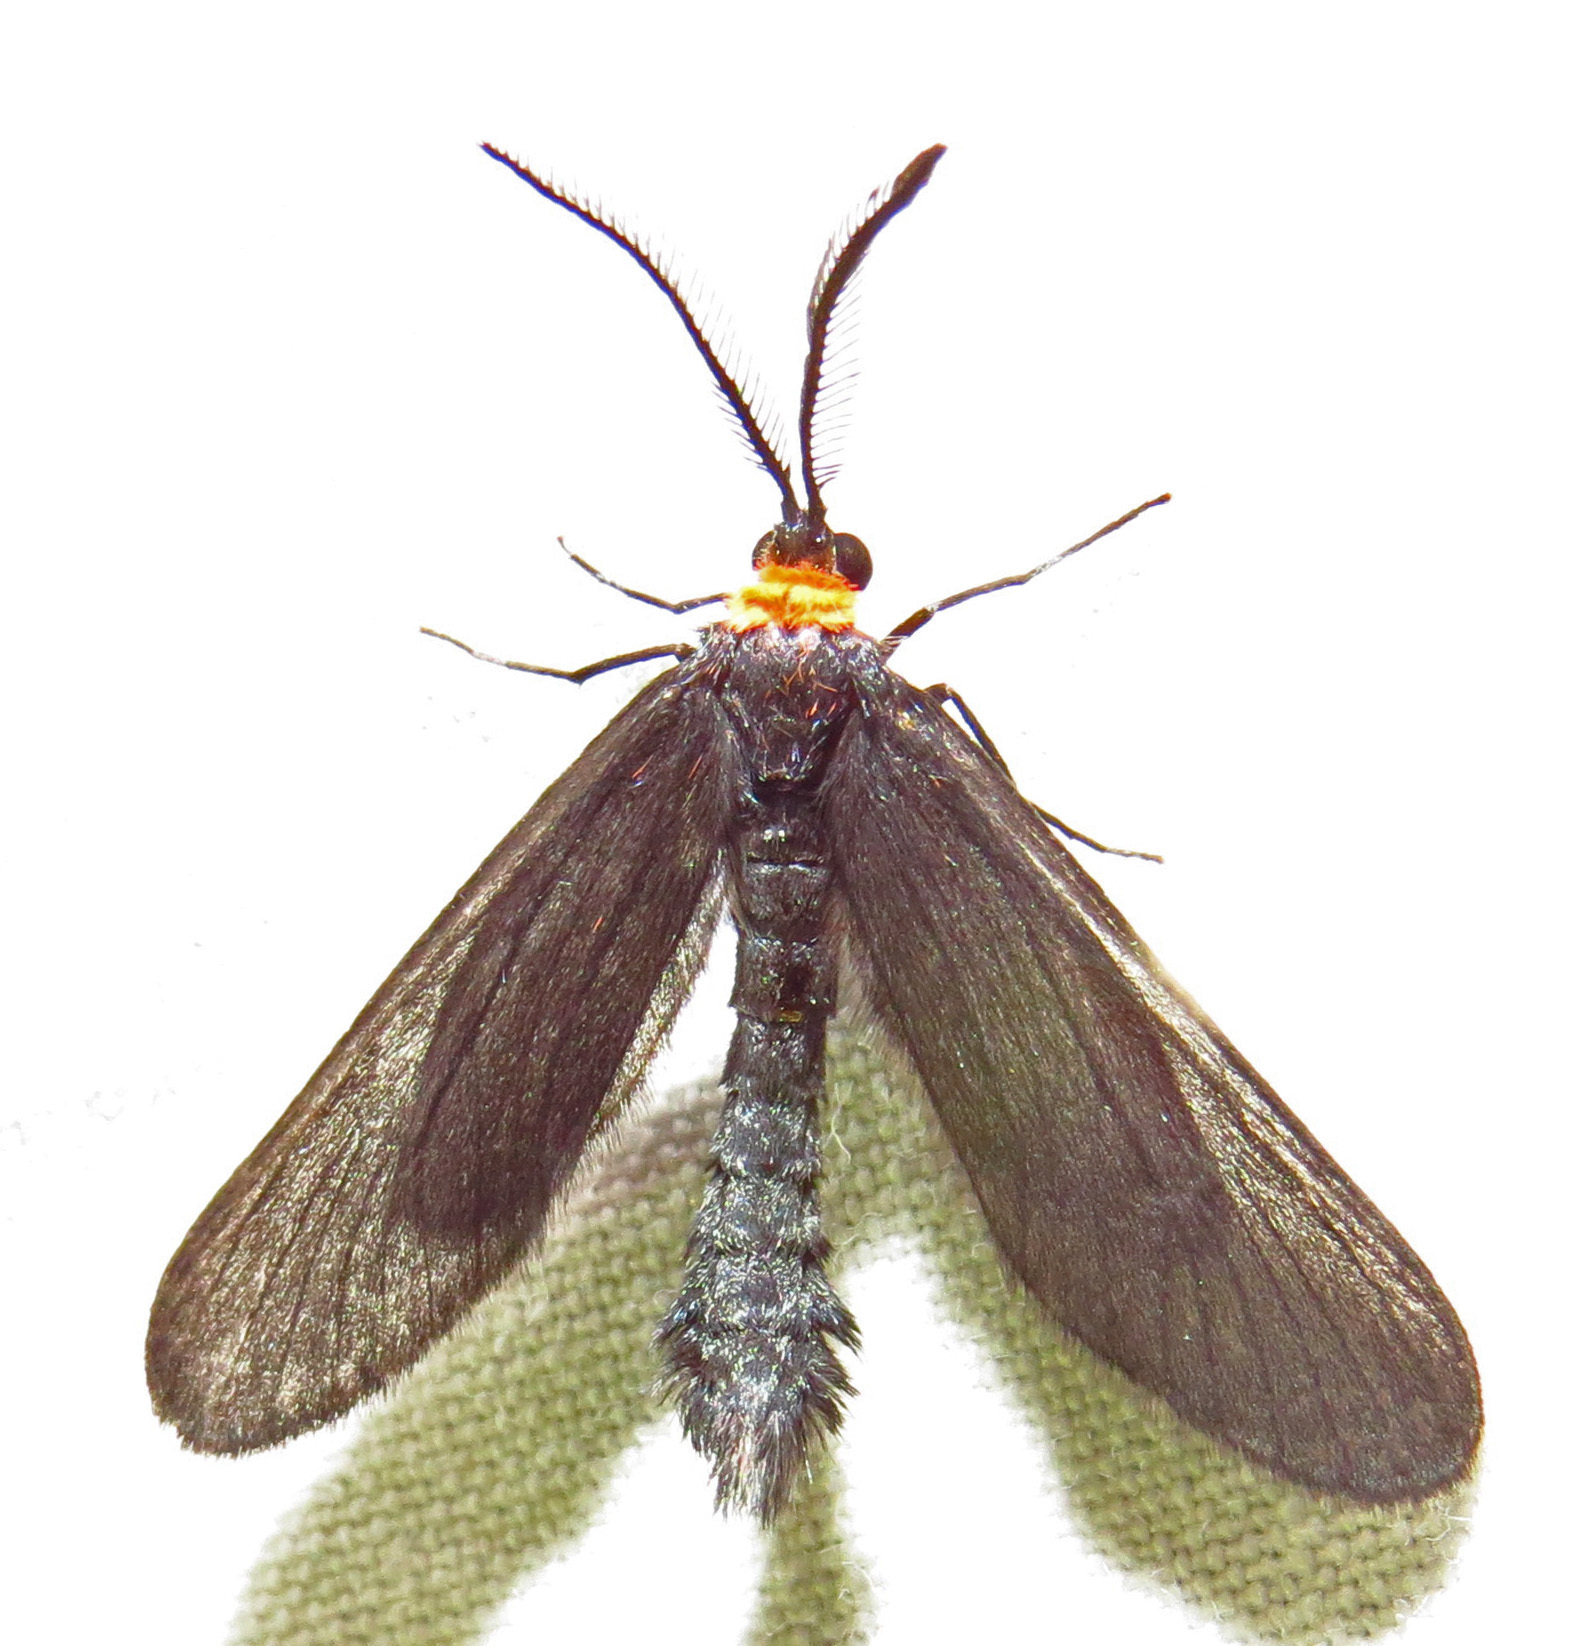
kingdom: Animalia
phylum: Arthropoda
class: Insecta
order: Lepidoptera
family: Zygaenidae
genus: Harrisina
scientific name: Harrisina americana
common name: Grapeleaf skeletonizer moth
